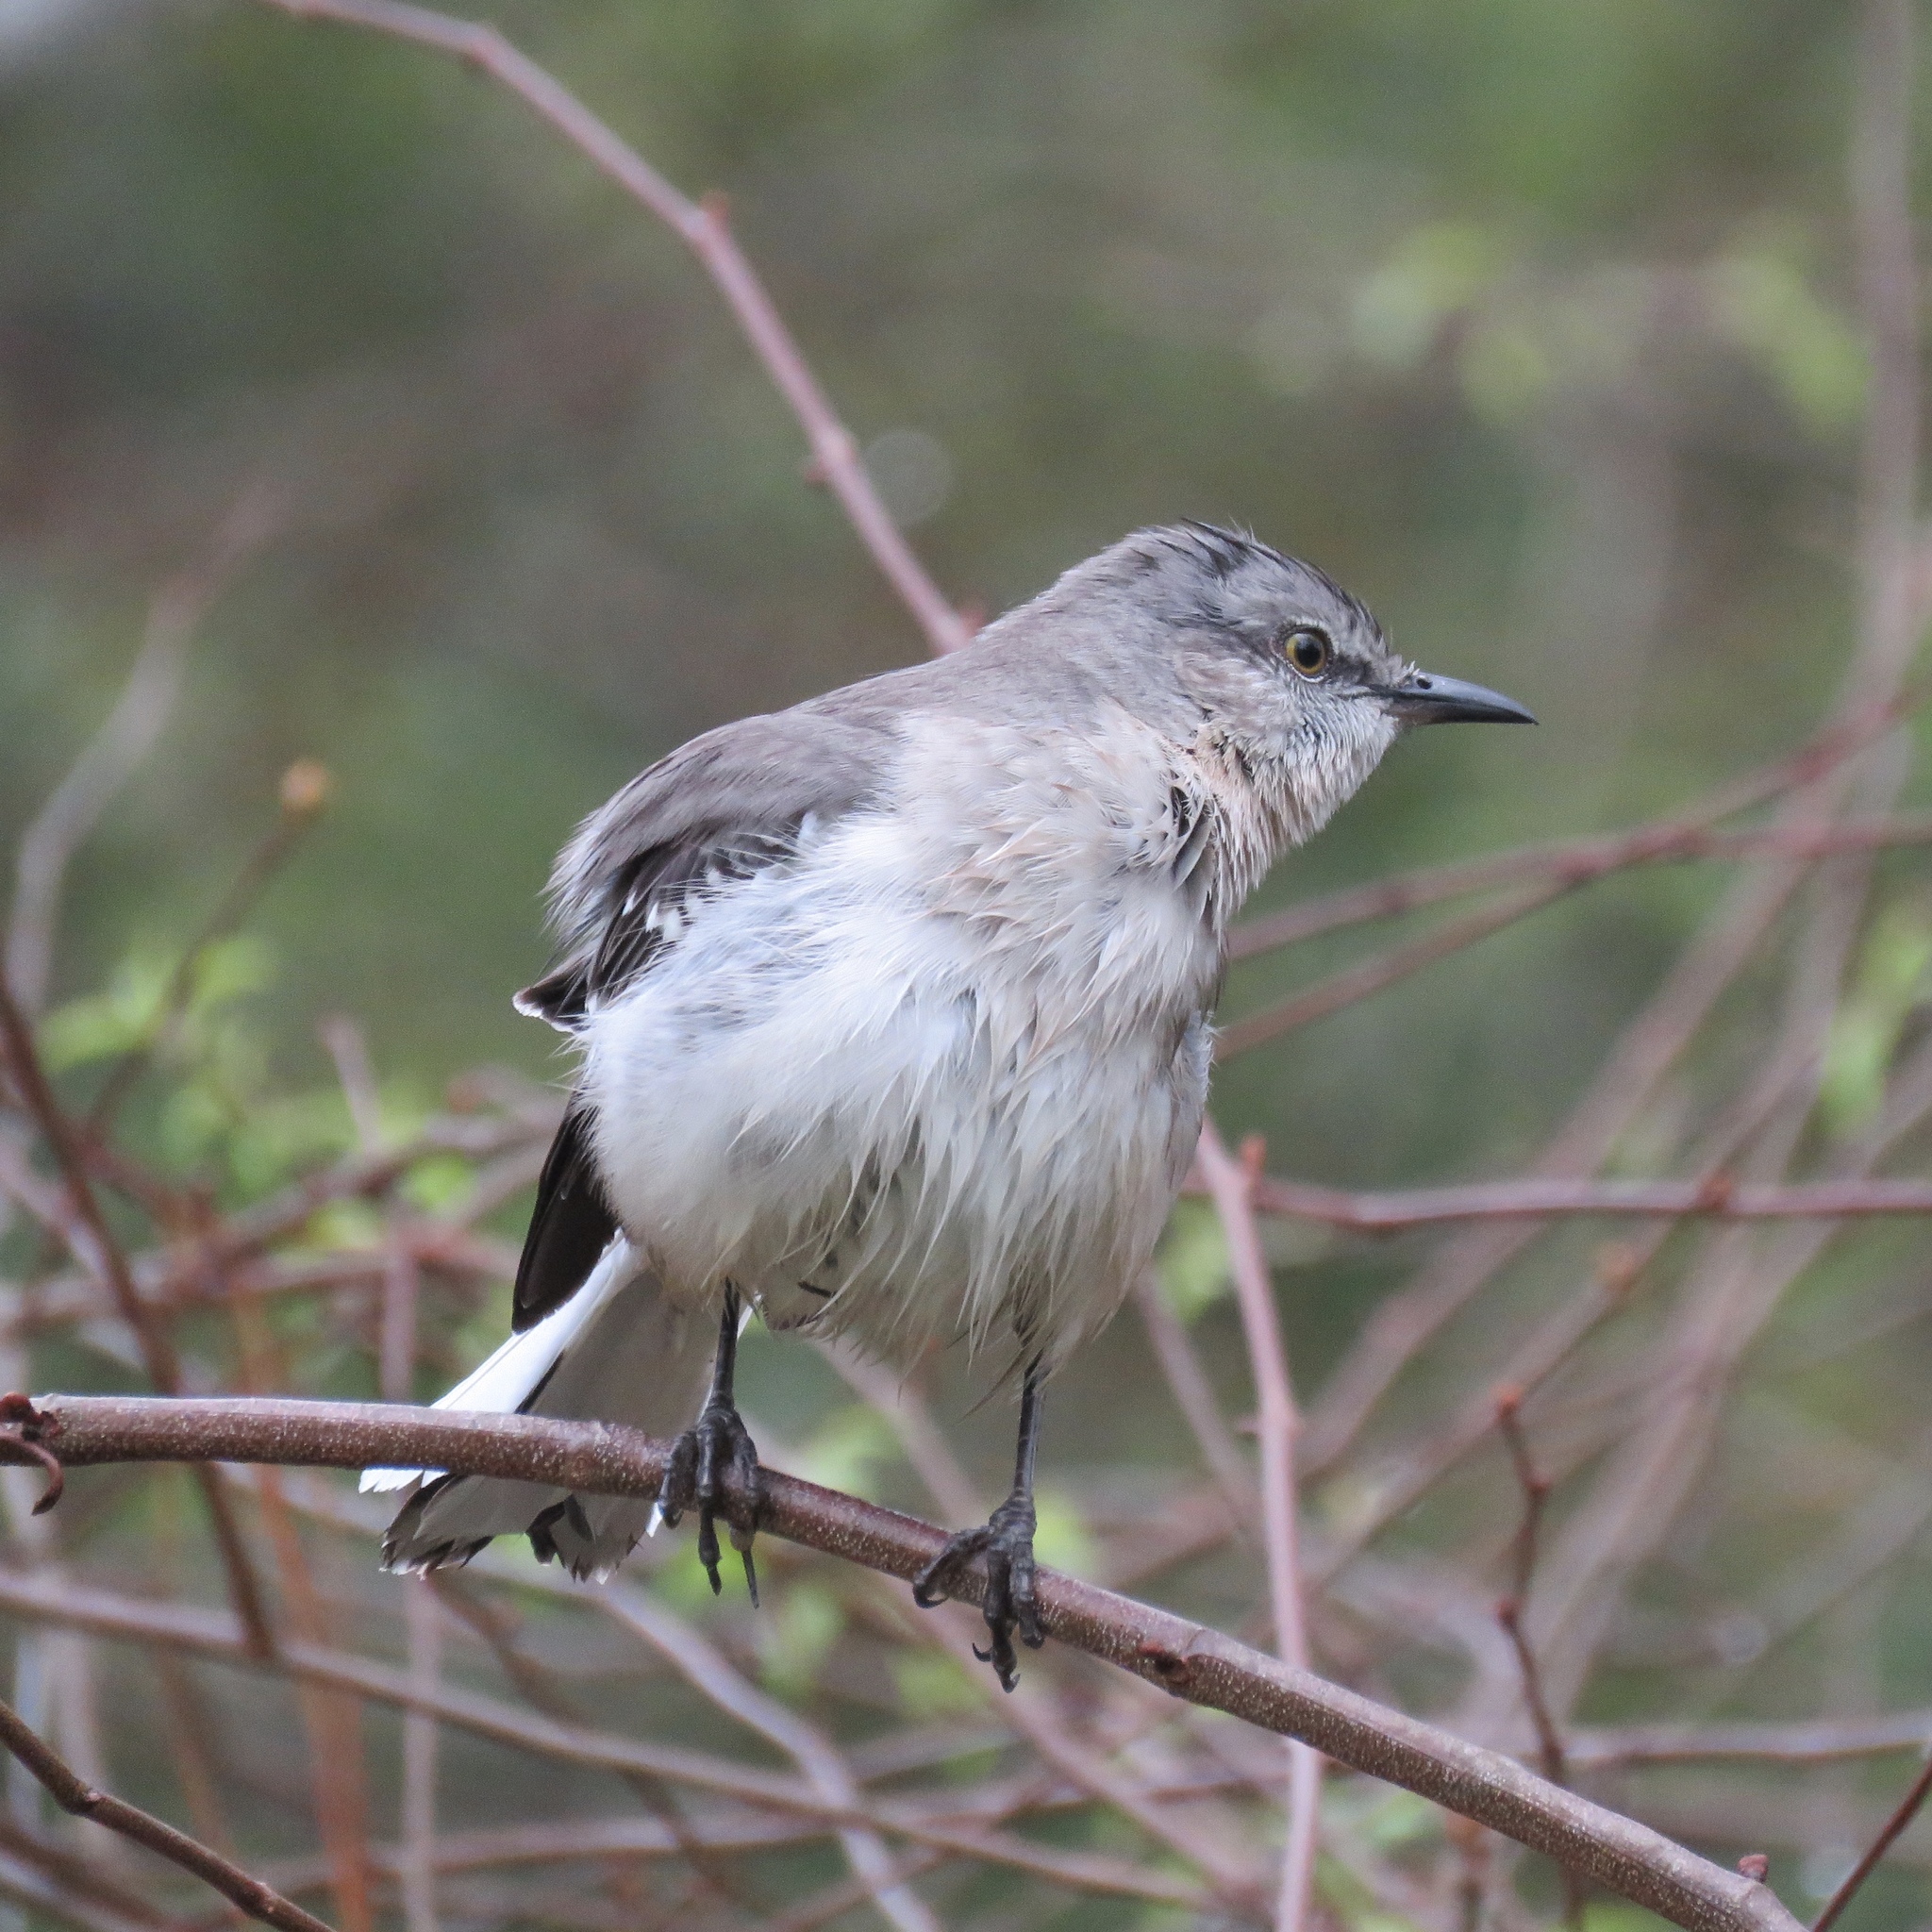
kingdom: Animalia
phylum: Chordata
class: Aves
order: Passeriformes
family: Mimidae
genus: Mimus
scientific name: Mimus polyglottos
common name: Northern mockingbird
